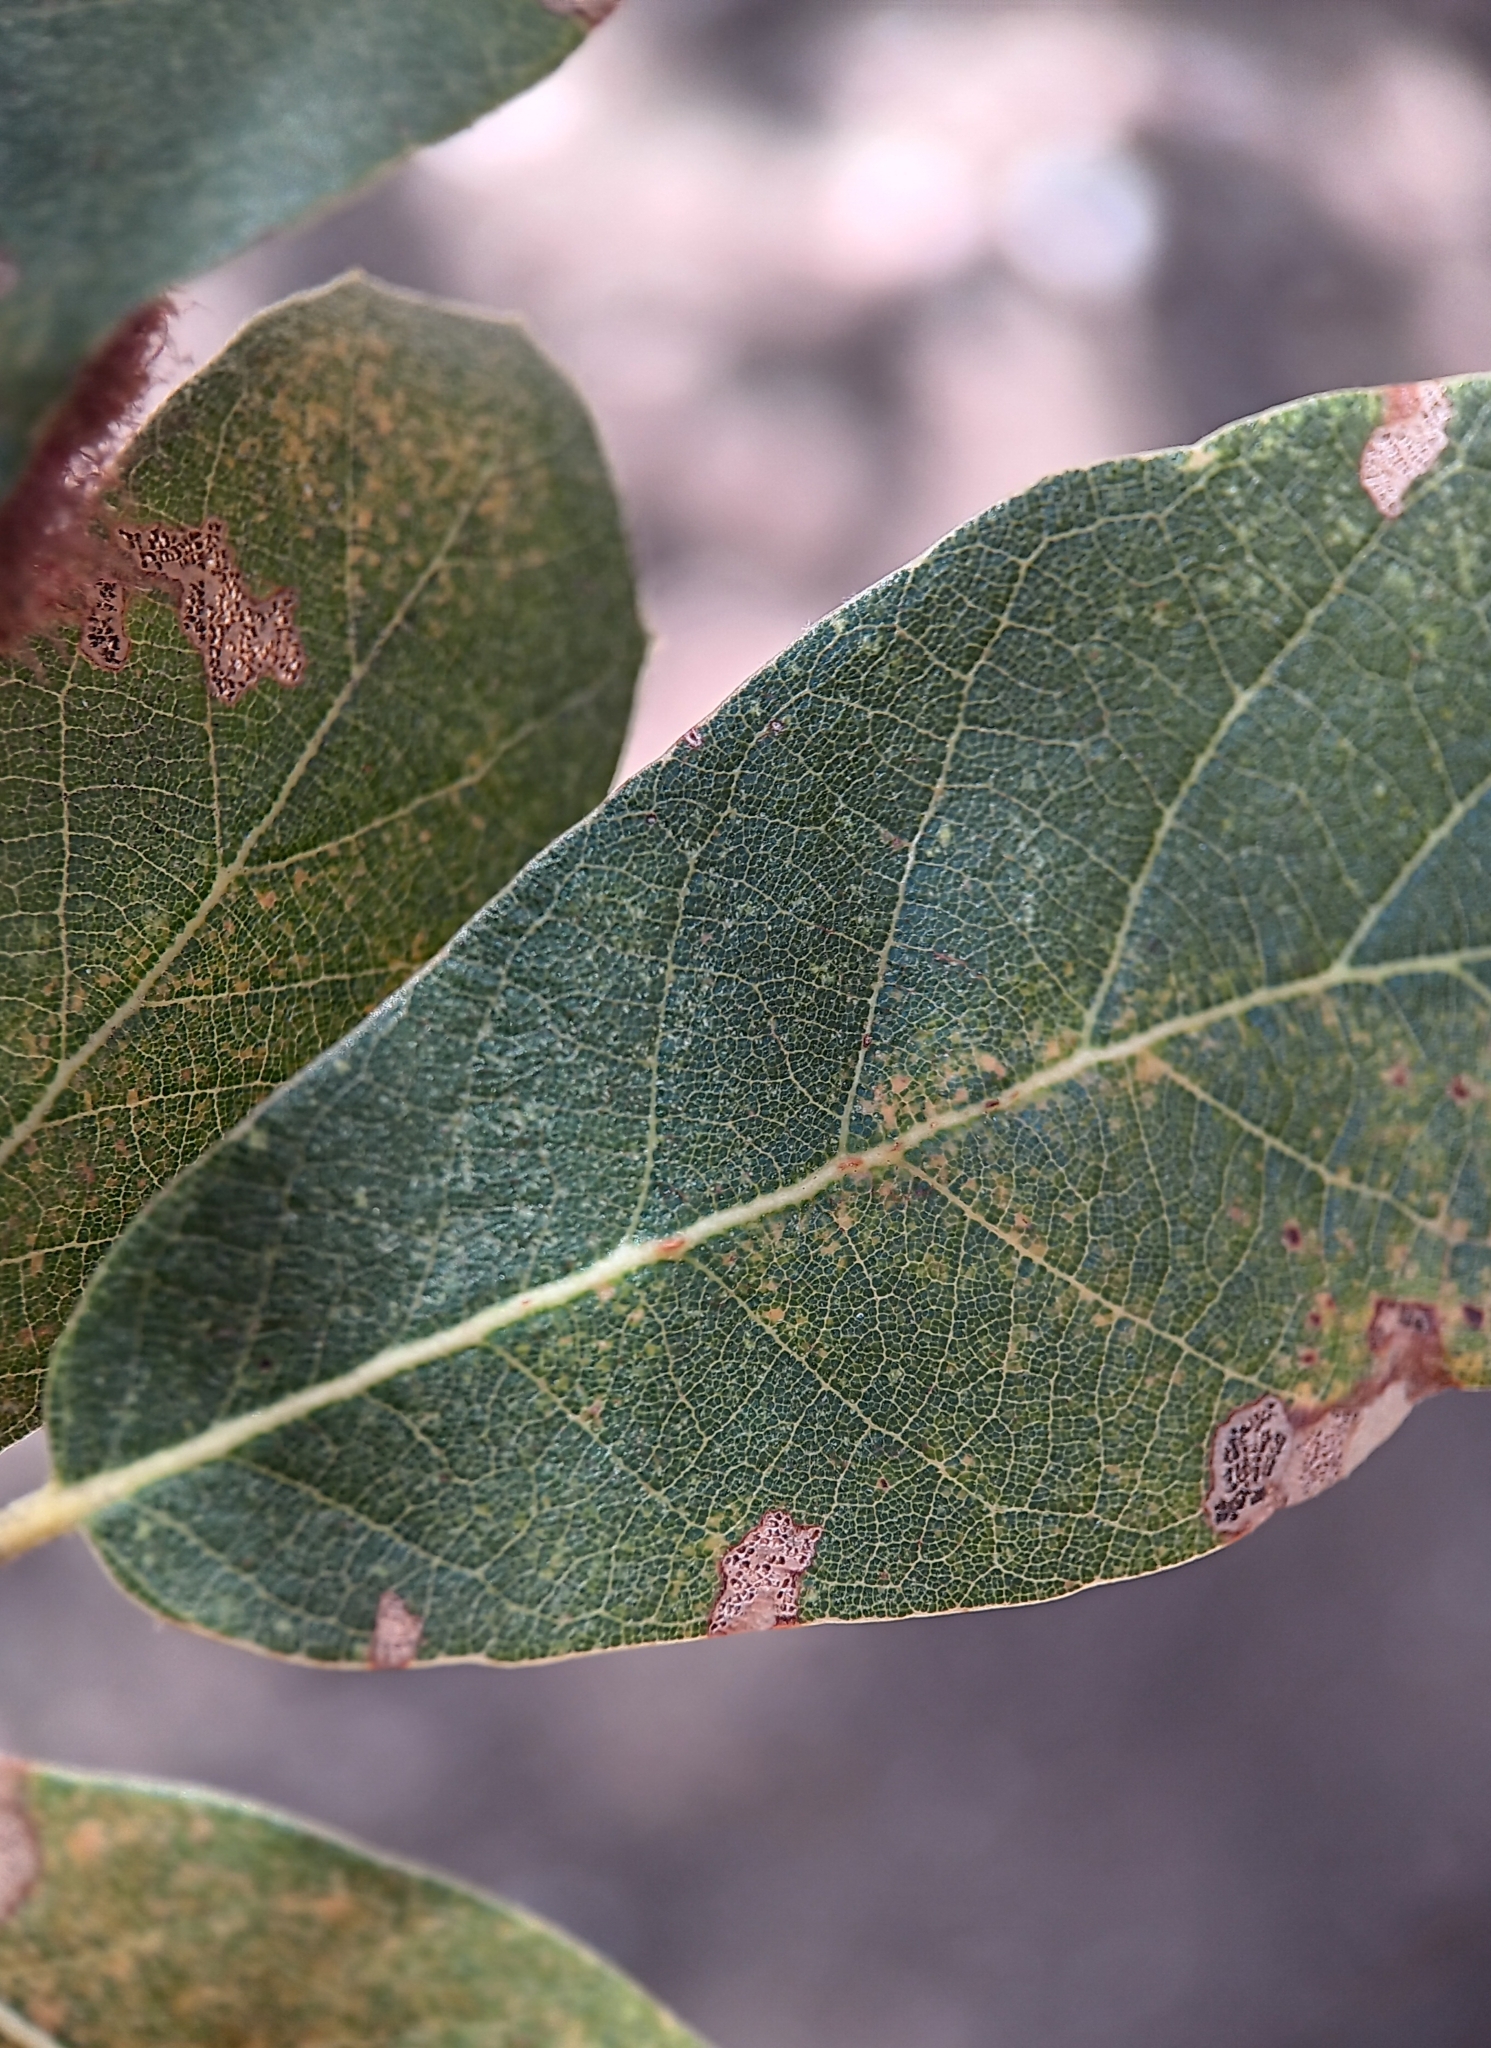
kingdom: Animalia
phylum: Arthropoda
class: Insecta
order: Hymenoptera
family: Cynipidae
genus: Cynips
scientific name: Cynips
